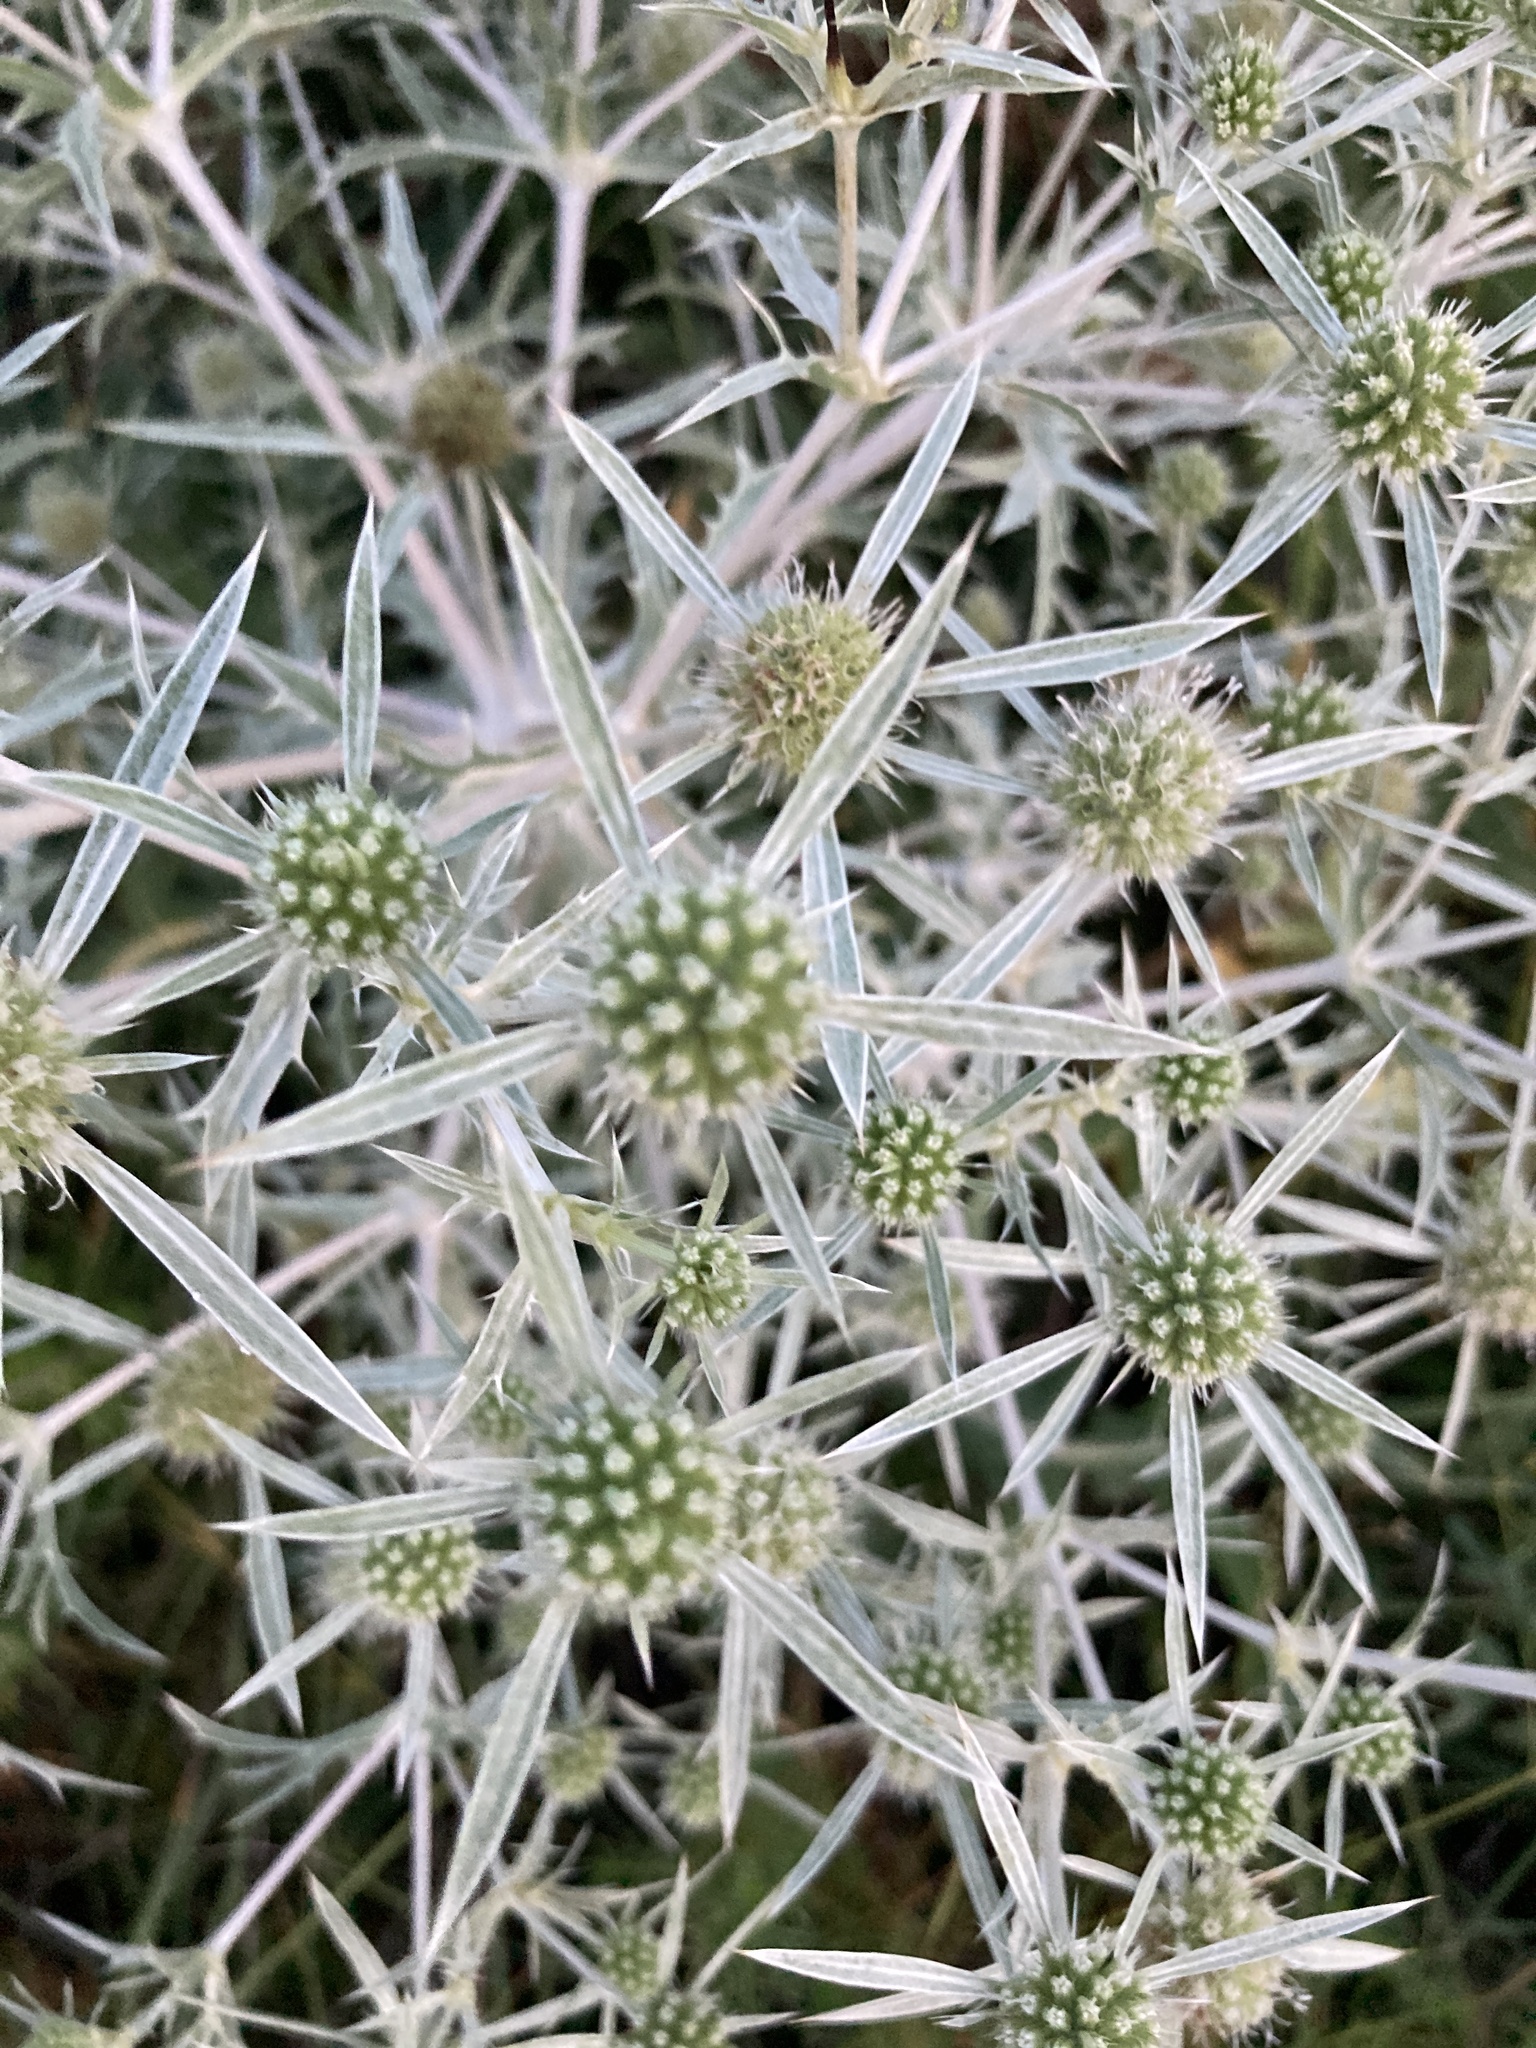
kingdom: Plantae
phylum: Tracheophyta
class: Magnoliopsida
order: Apiales
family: Apiaceae
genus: Eryngium
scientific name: Eryngium campestre
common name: Field eryngo
